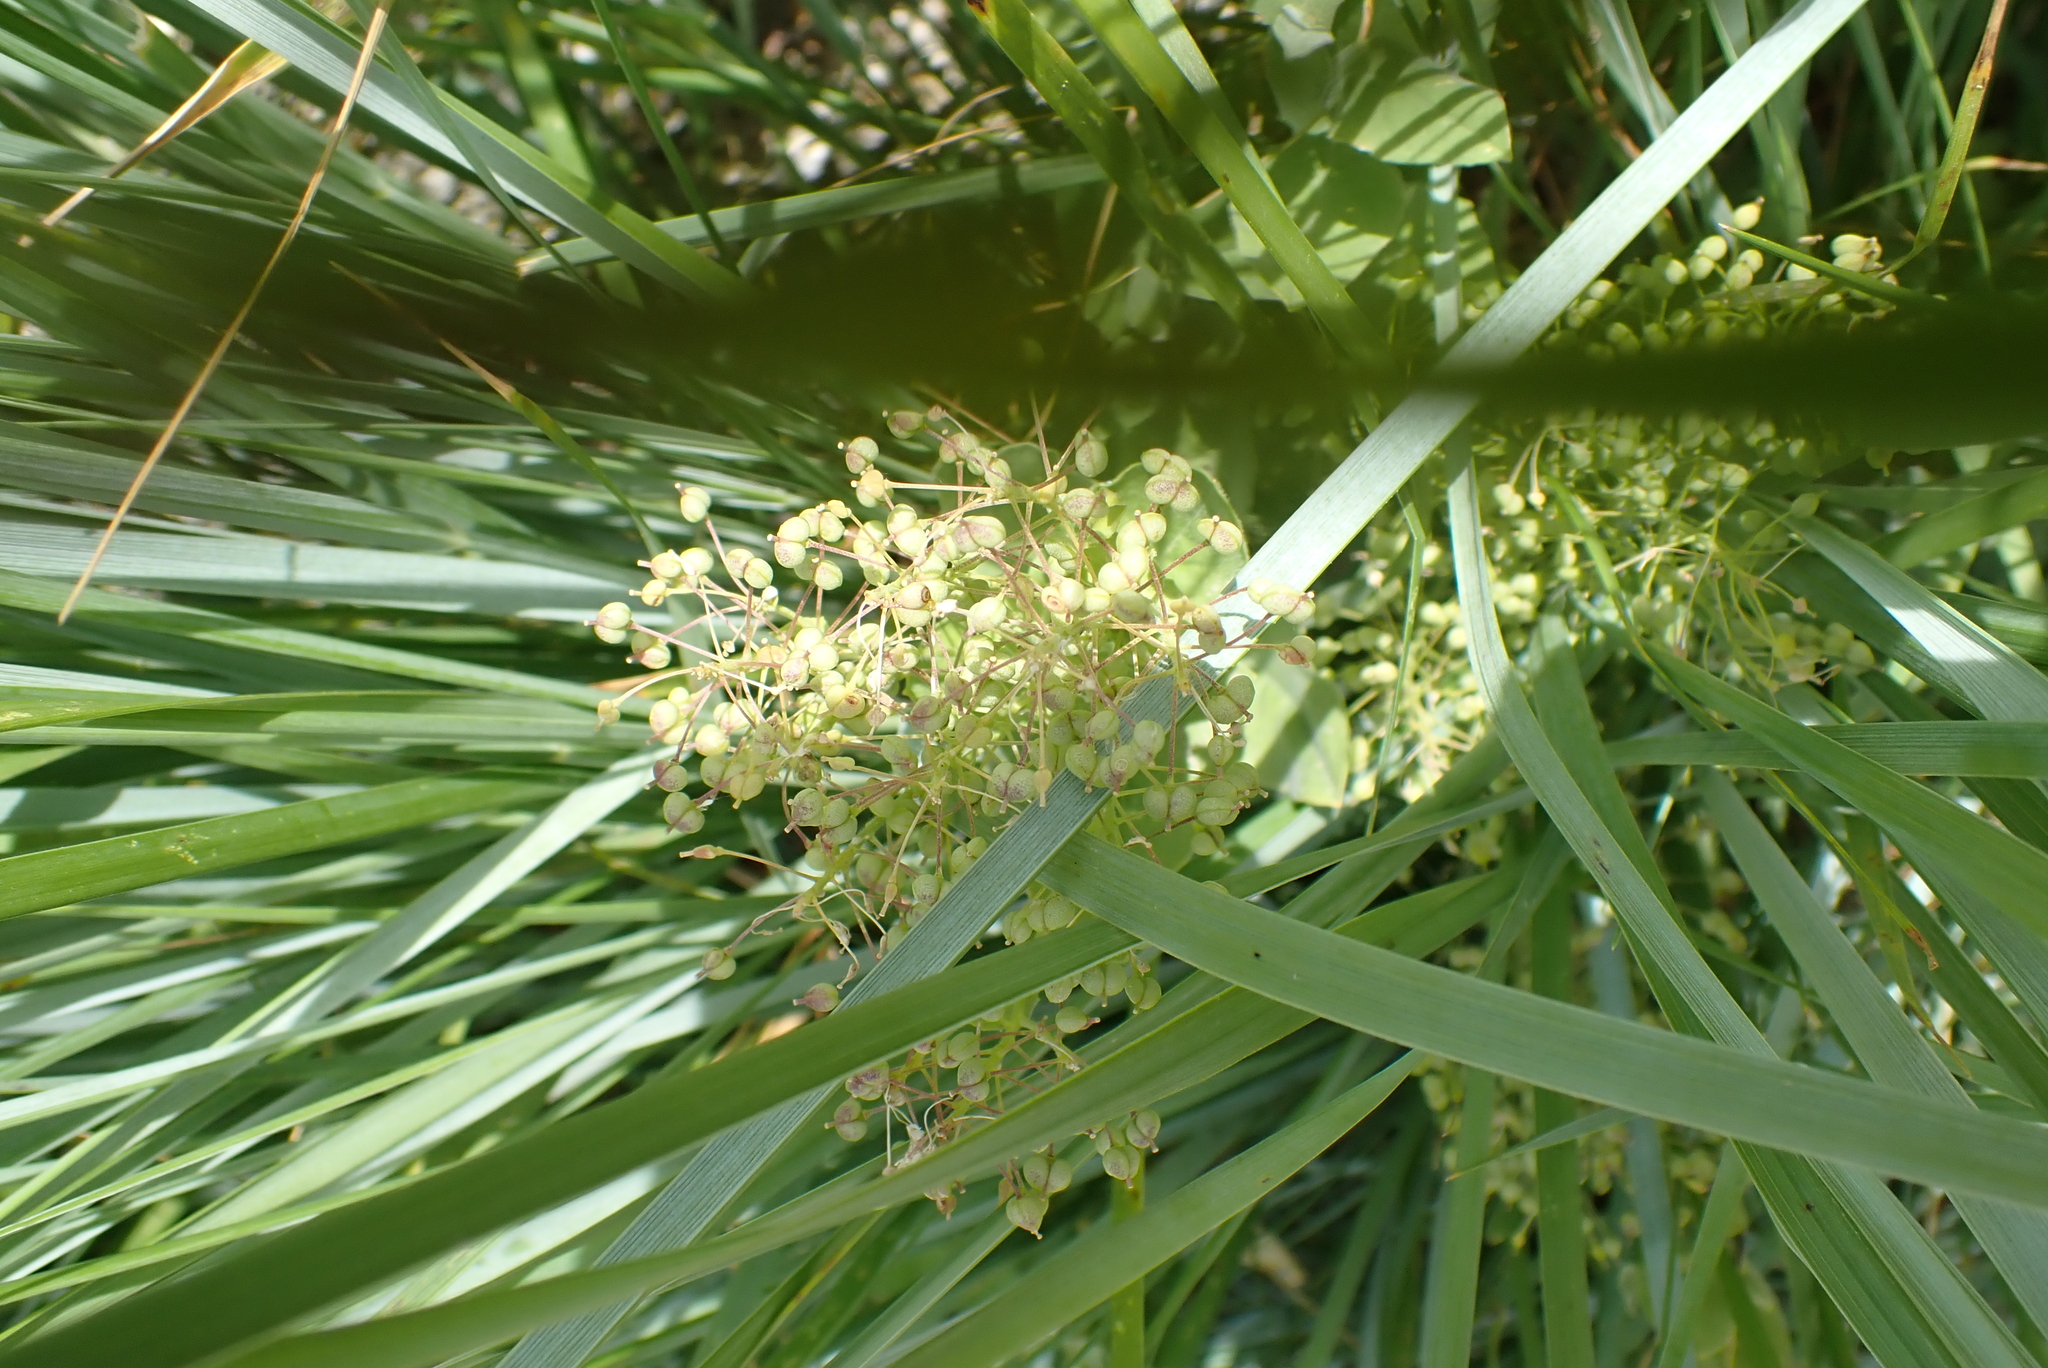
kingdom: Plantae
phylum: Tracheophyta
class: Magnoliopsida
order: Brassicales
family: Brassicaceae
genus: Lepidium
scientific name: Lepidium draba
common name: Hoary cress
